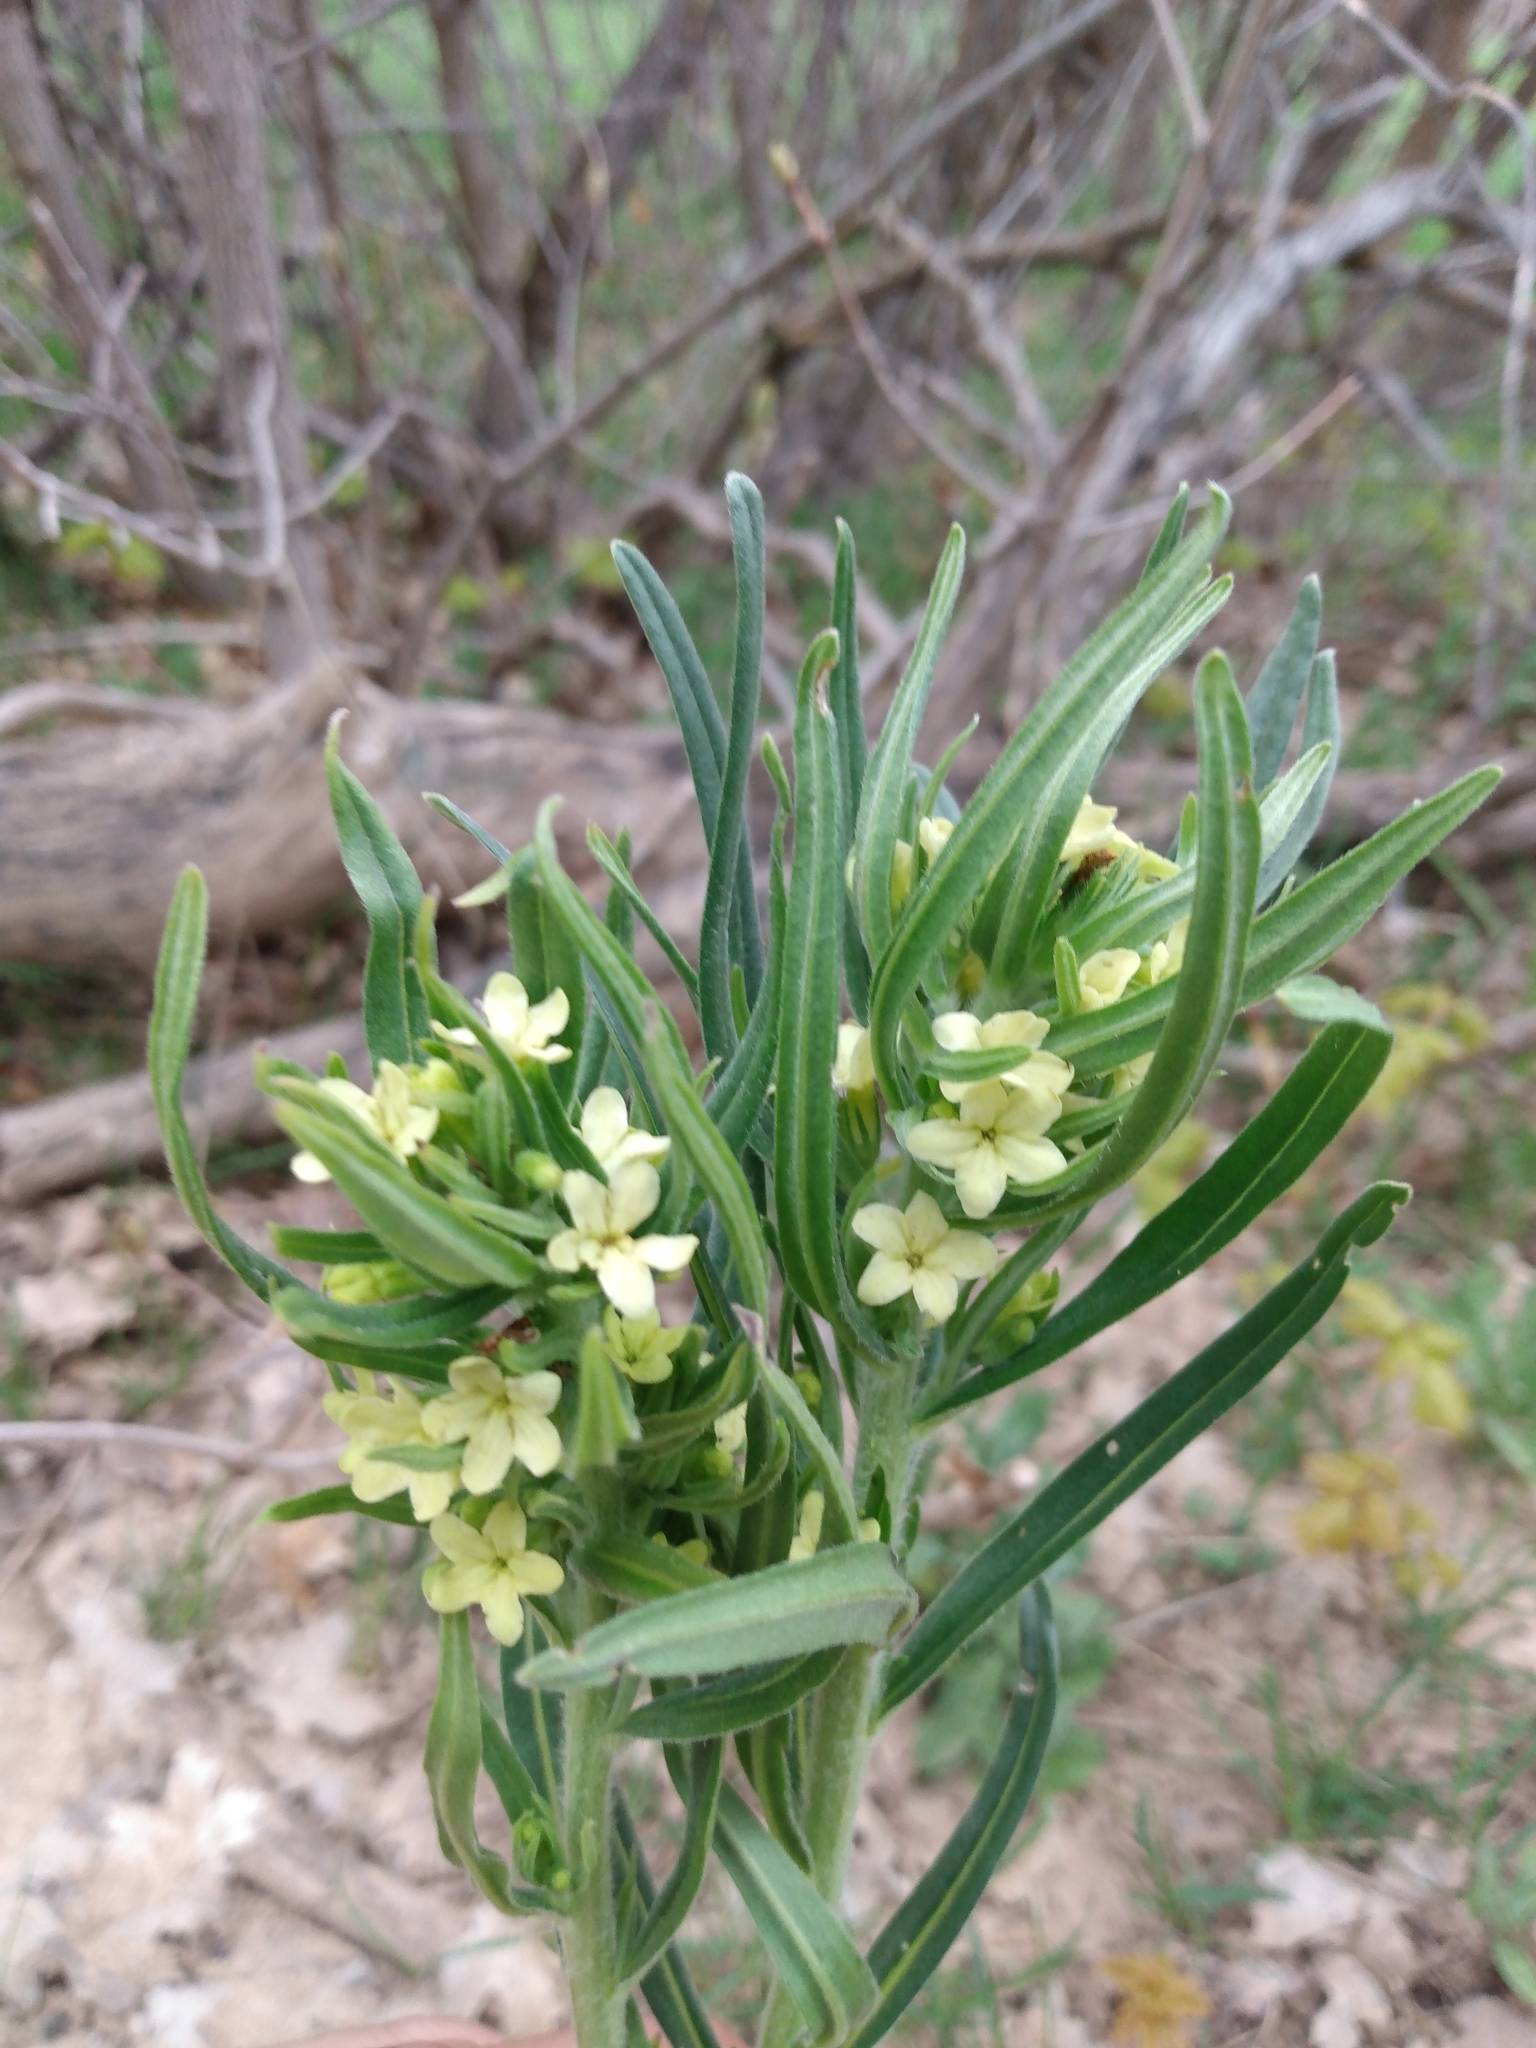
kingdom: Plantae
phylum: Tracheophyta
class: Magnoliopsida
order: Boraginales
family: Boraginaceae
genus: Lithospermum
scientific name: Lithospermum ruderale
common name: Western gromwell
